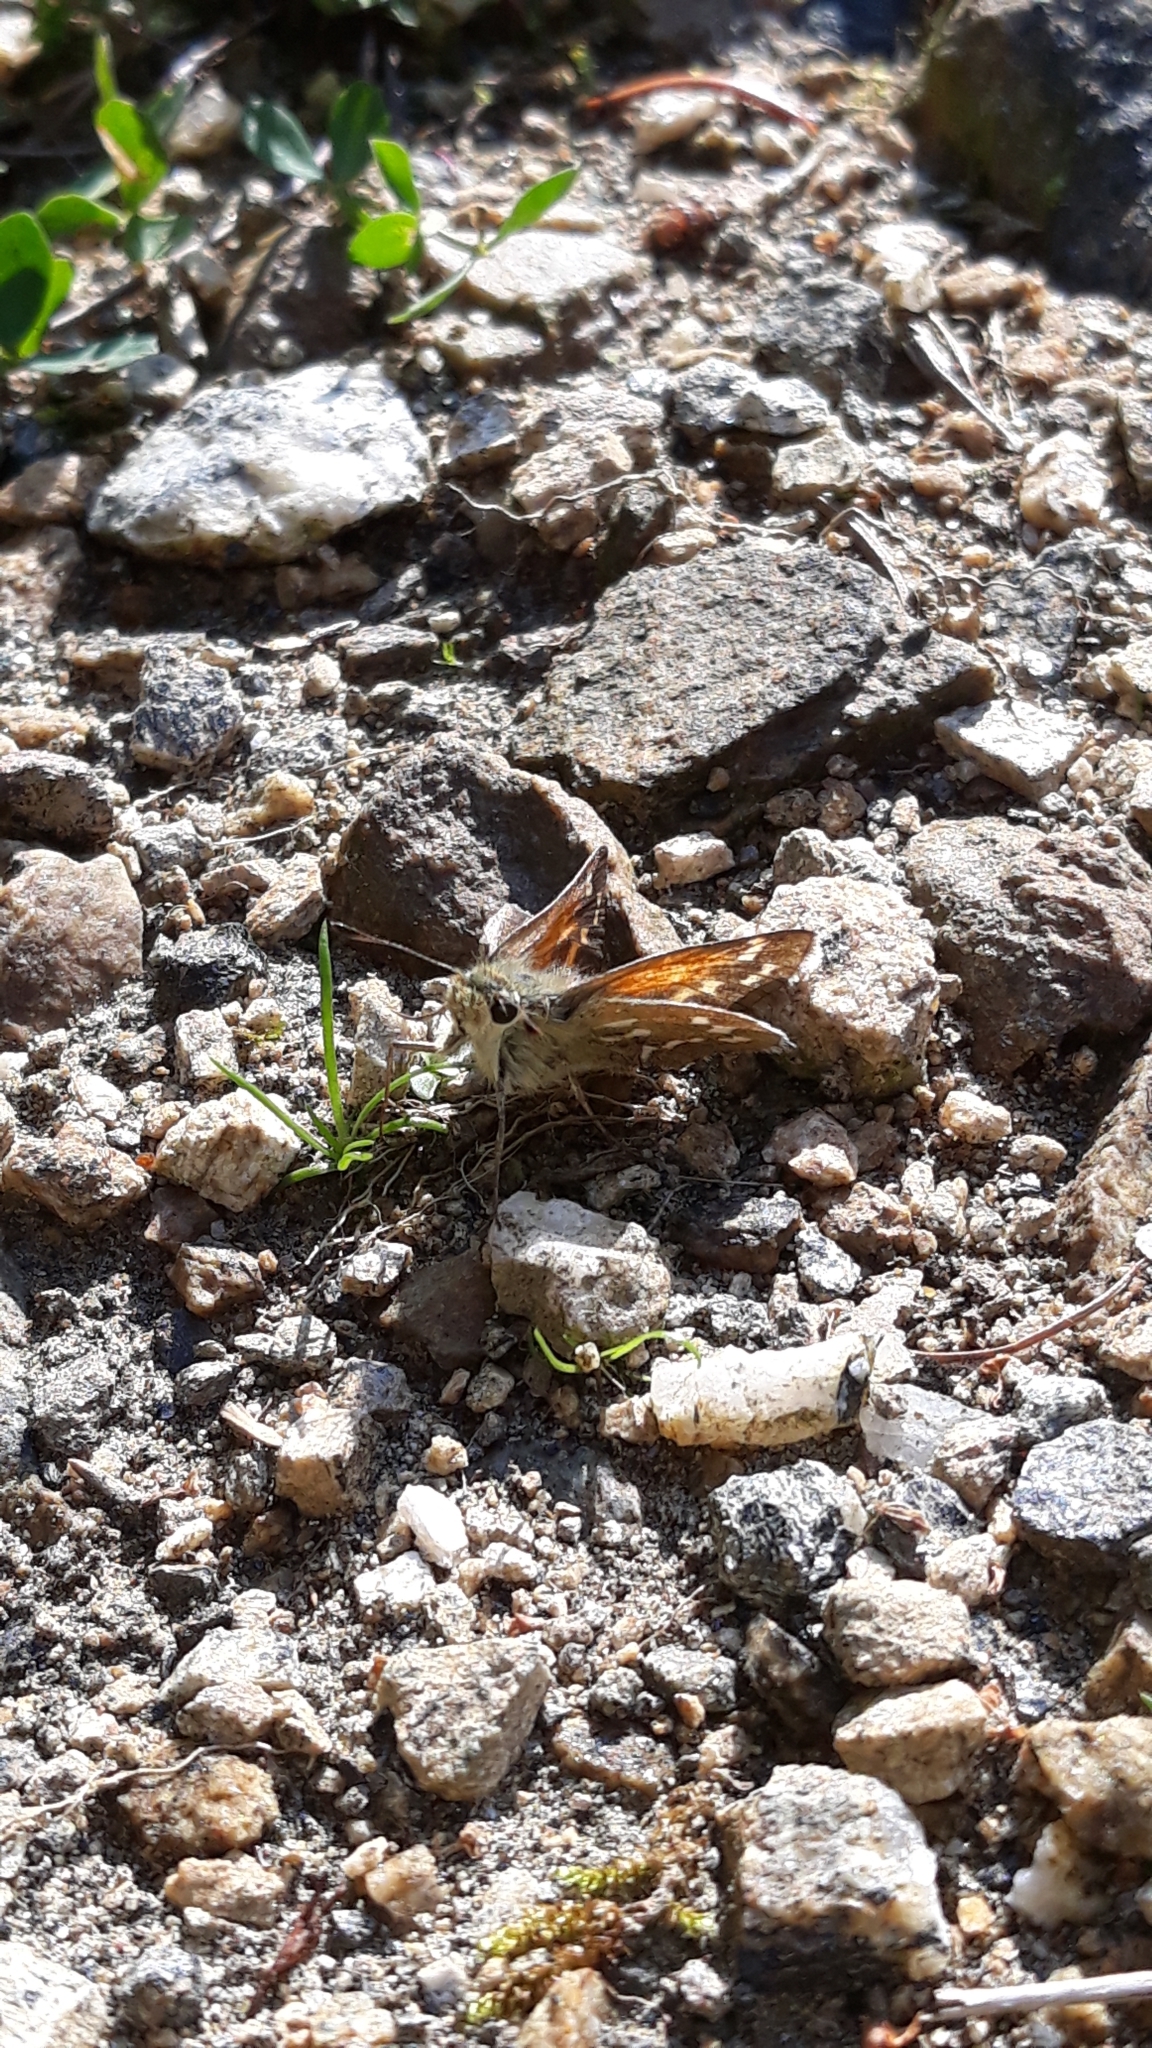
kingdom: Animalia
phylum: Arthropoda
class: Insecta
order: Lepidoptera
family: Hesperiidae
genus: Hesperia
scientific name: Hesperia comma
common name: Common branded skipper
